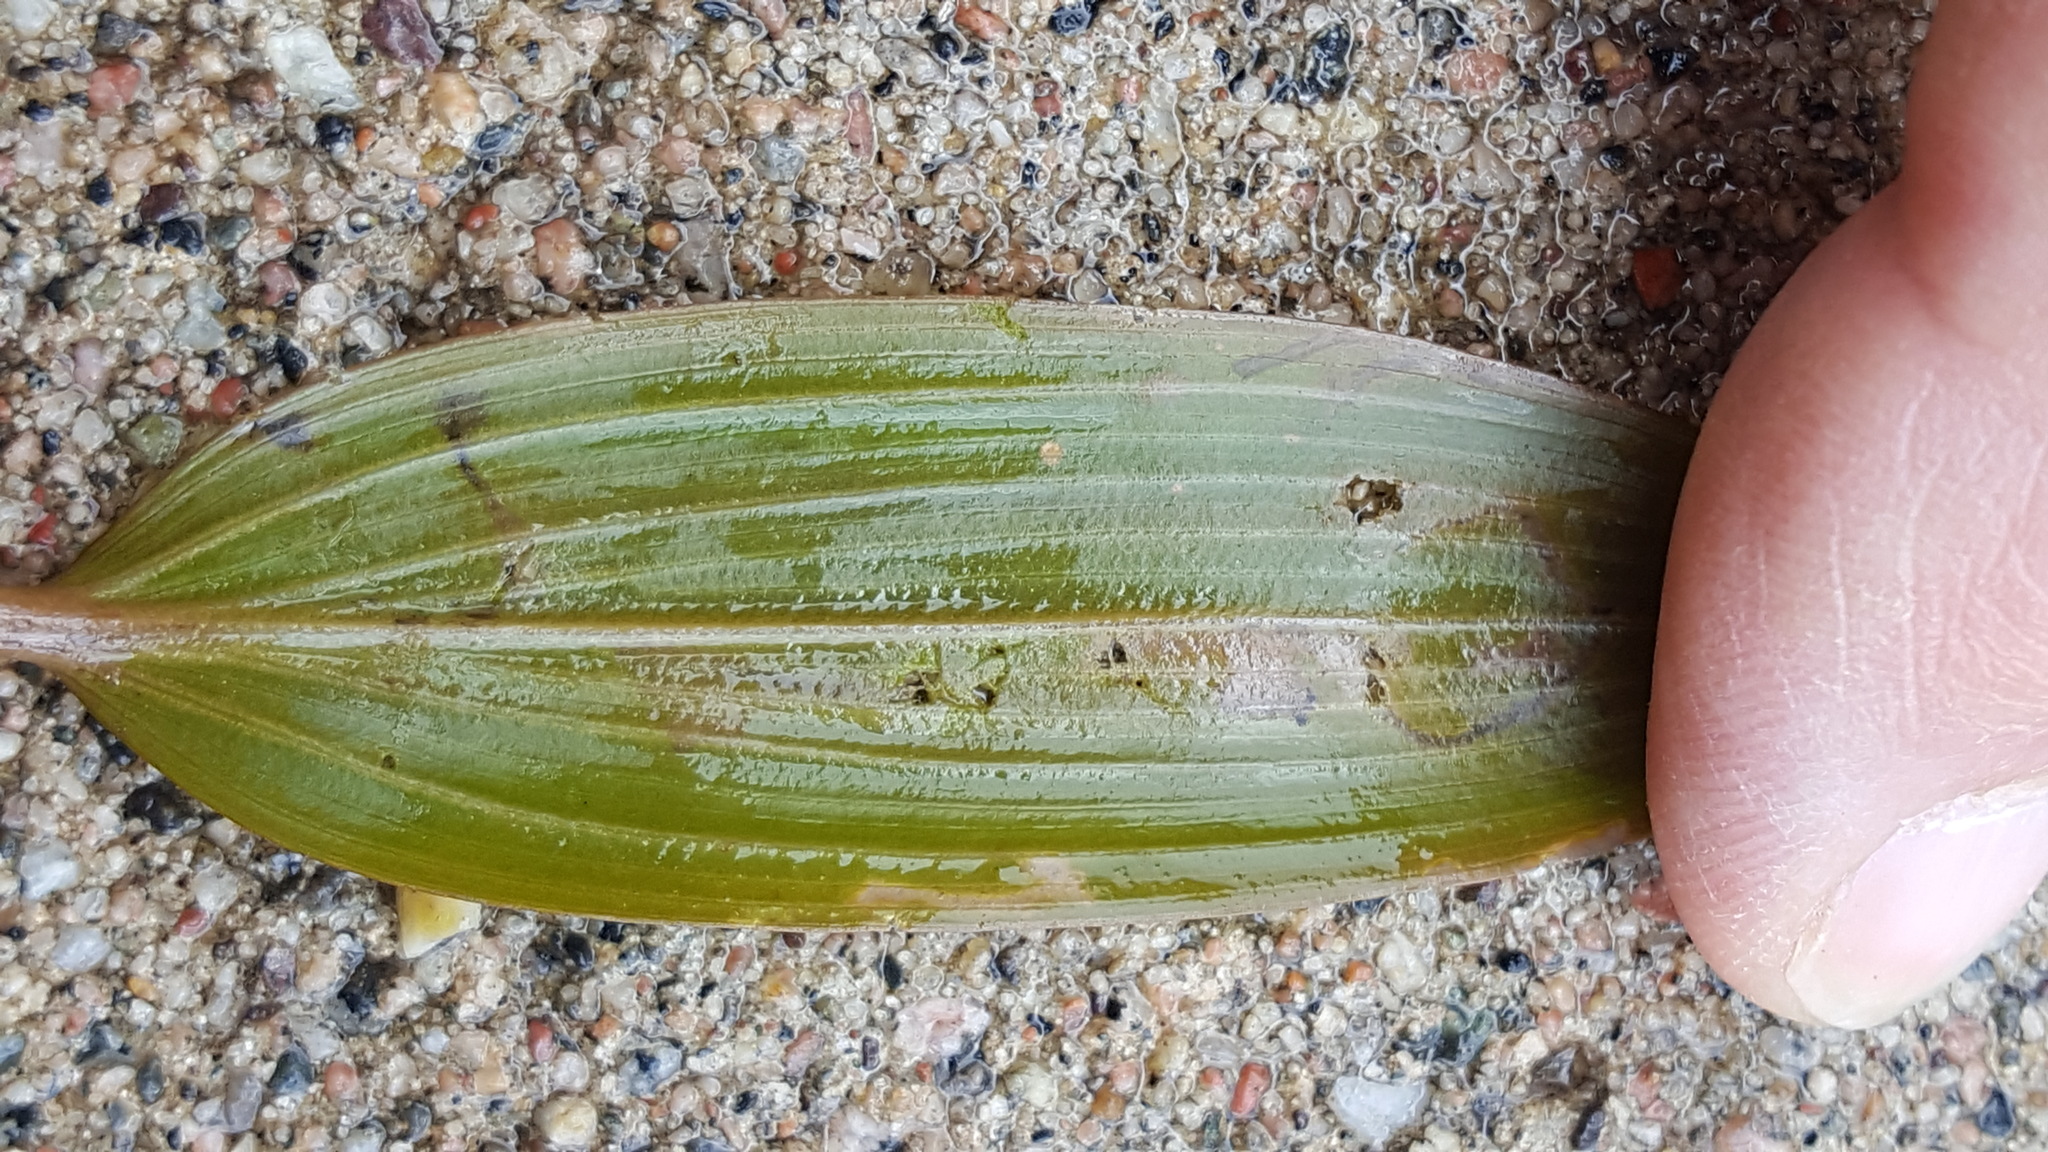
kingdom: Plantae
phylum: Tracheophyta
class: Liliopsida
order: Alismatales
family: Potamogetonaceae
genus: Potamogeton
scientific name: Potamogeton epihydrus
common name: American pondweed
